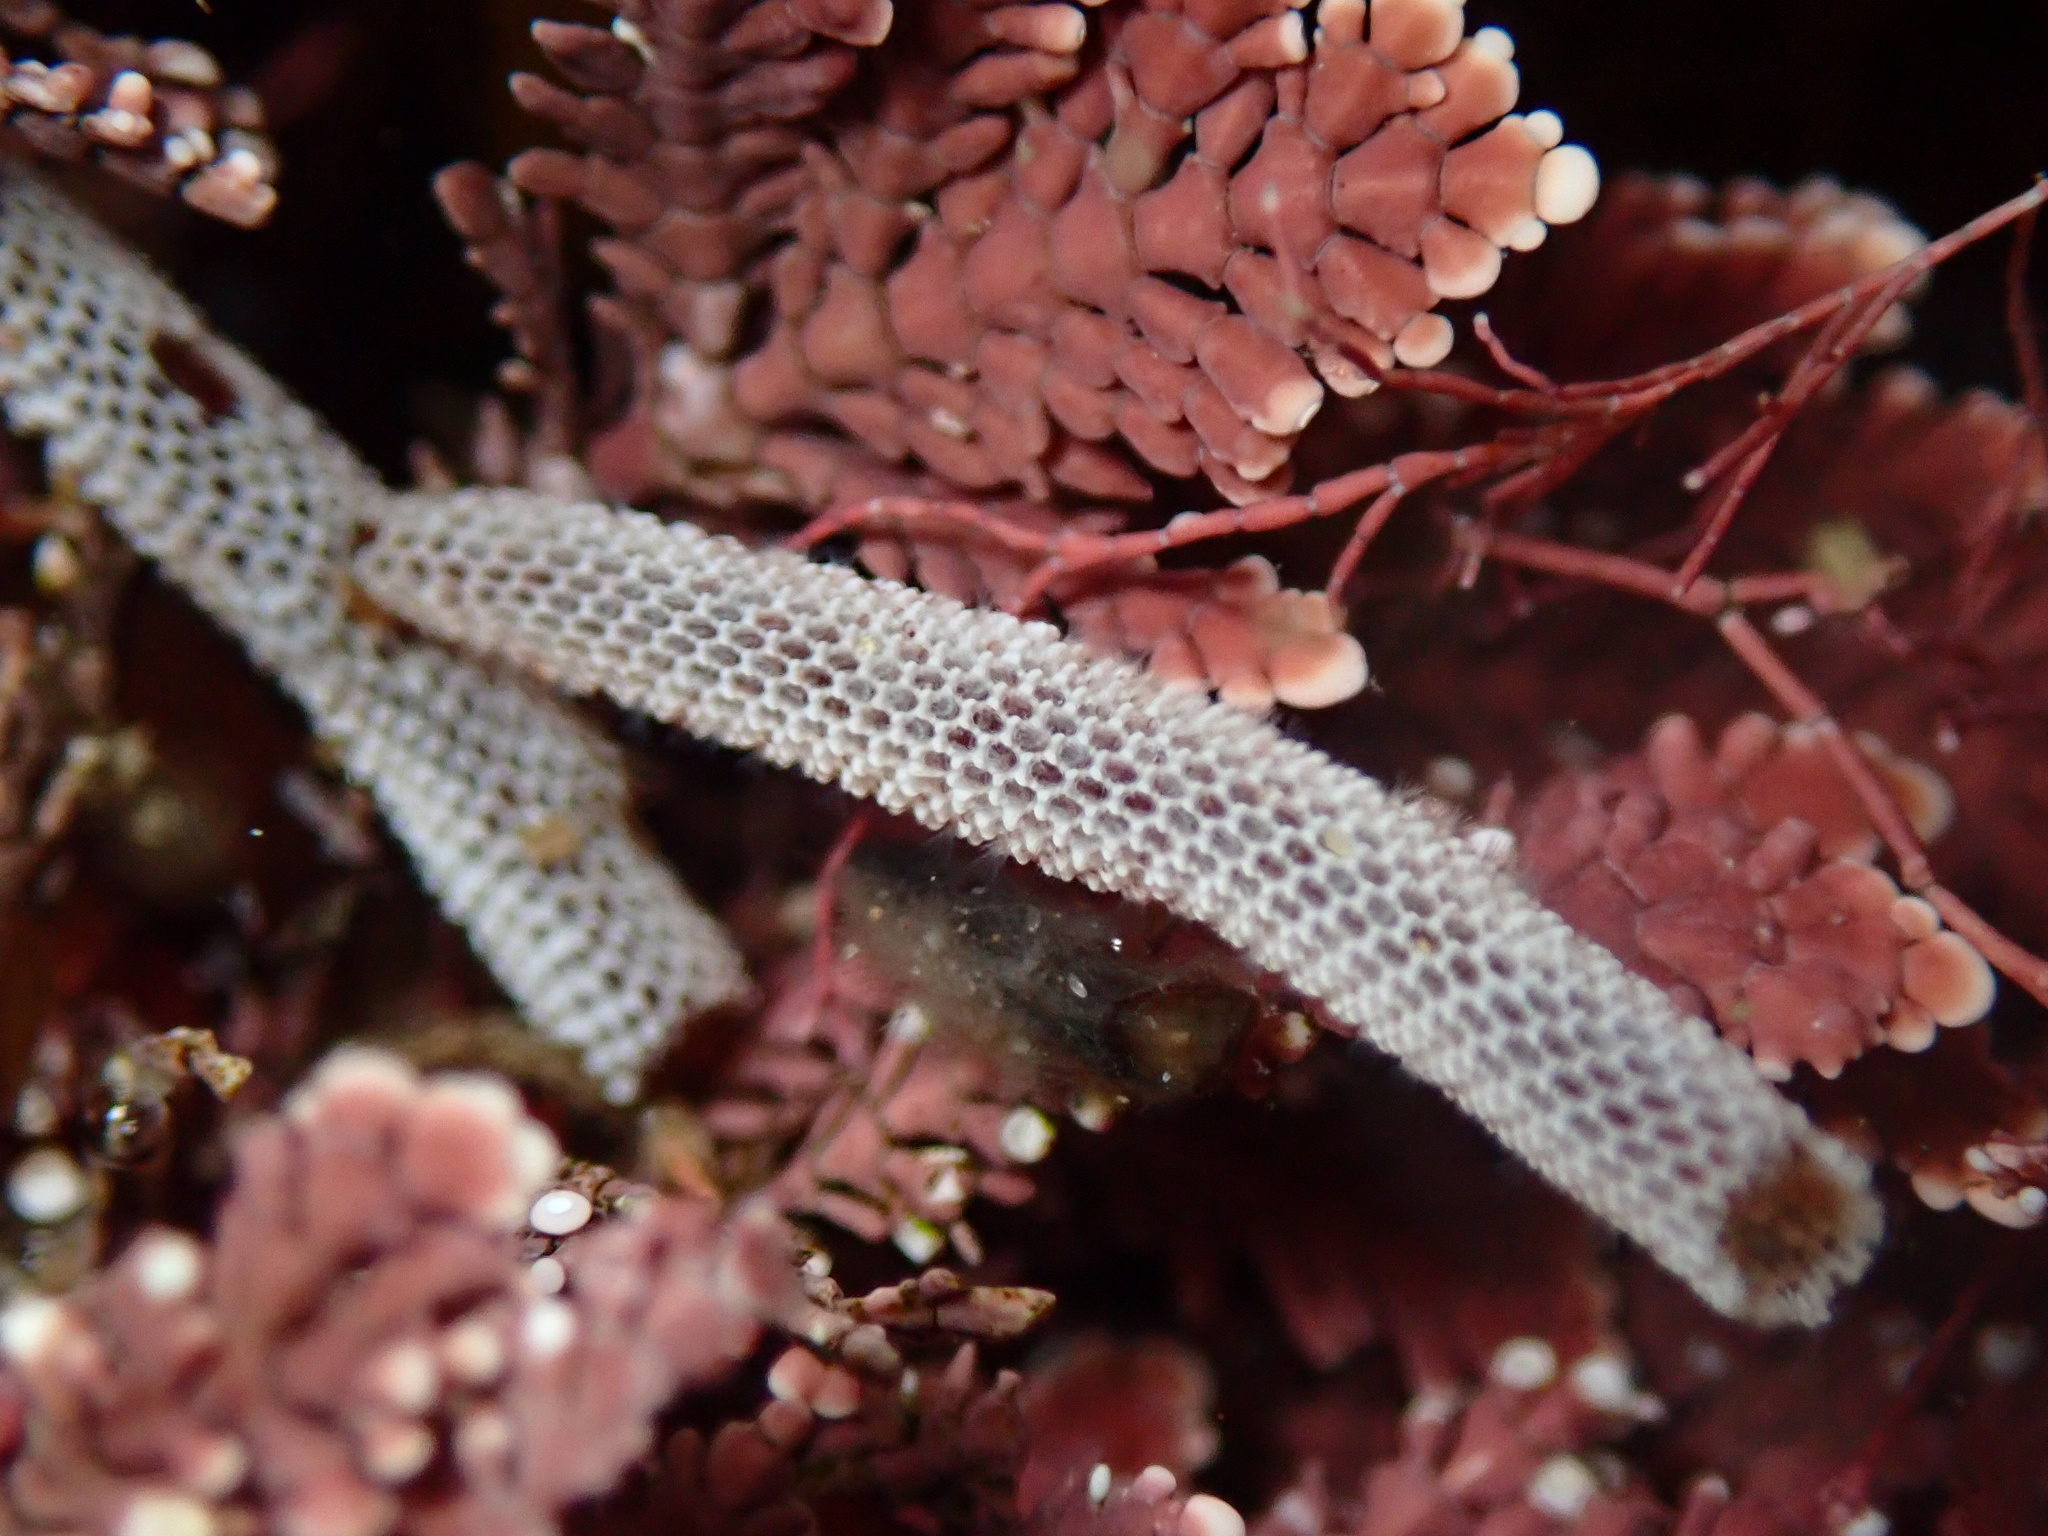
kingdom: Animalia
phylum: Bryozoa
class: Gymnolaemata
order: Cheilostomatida
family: Membraniporidae
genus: Jellyella
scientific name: Jellyella tuberculata
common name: Sargassum bryozoan
